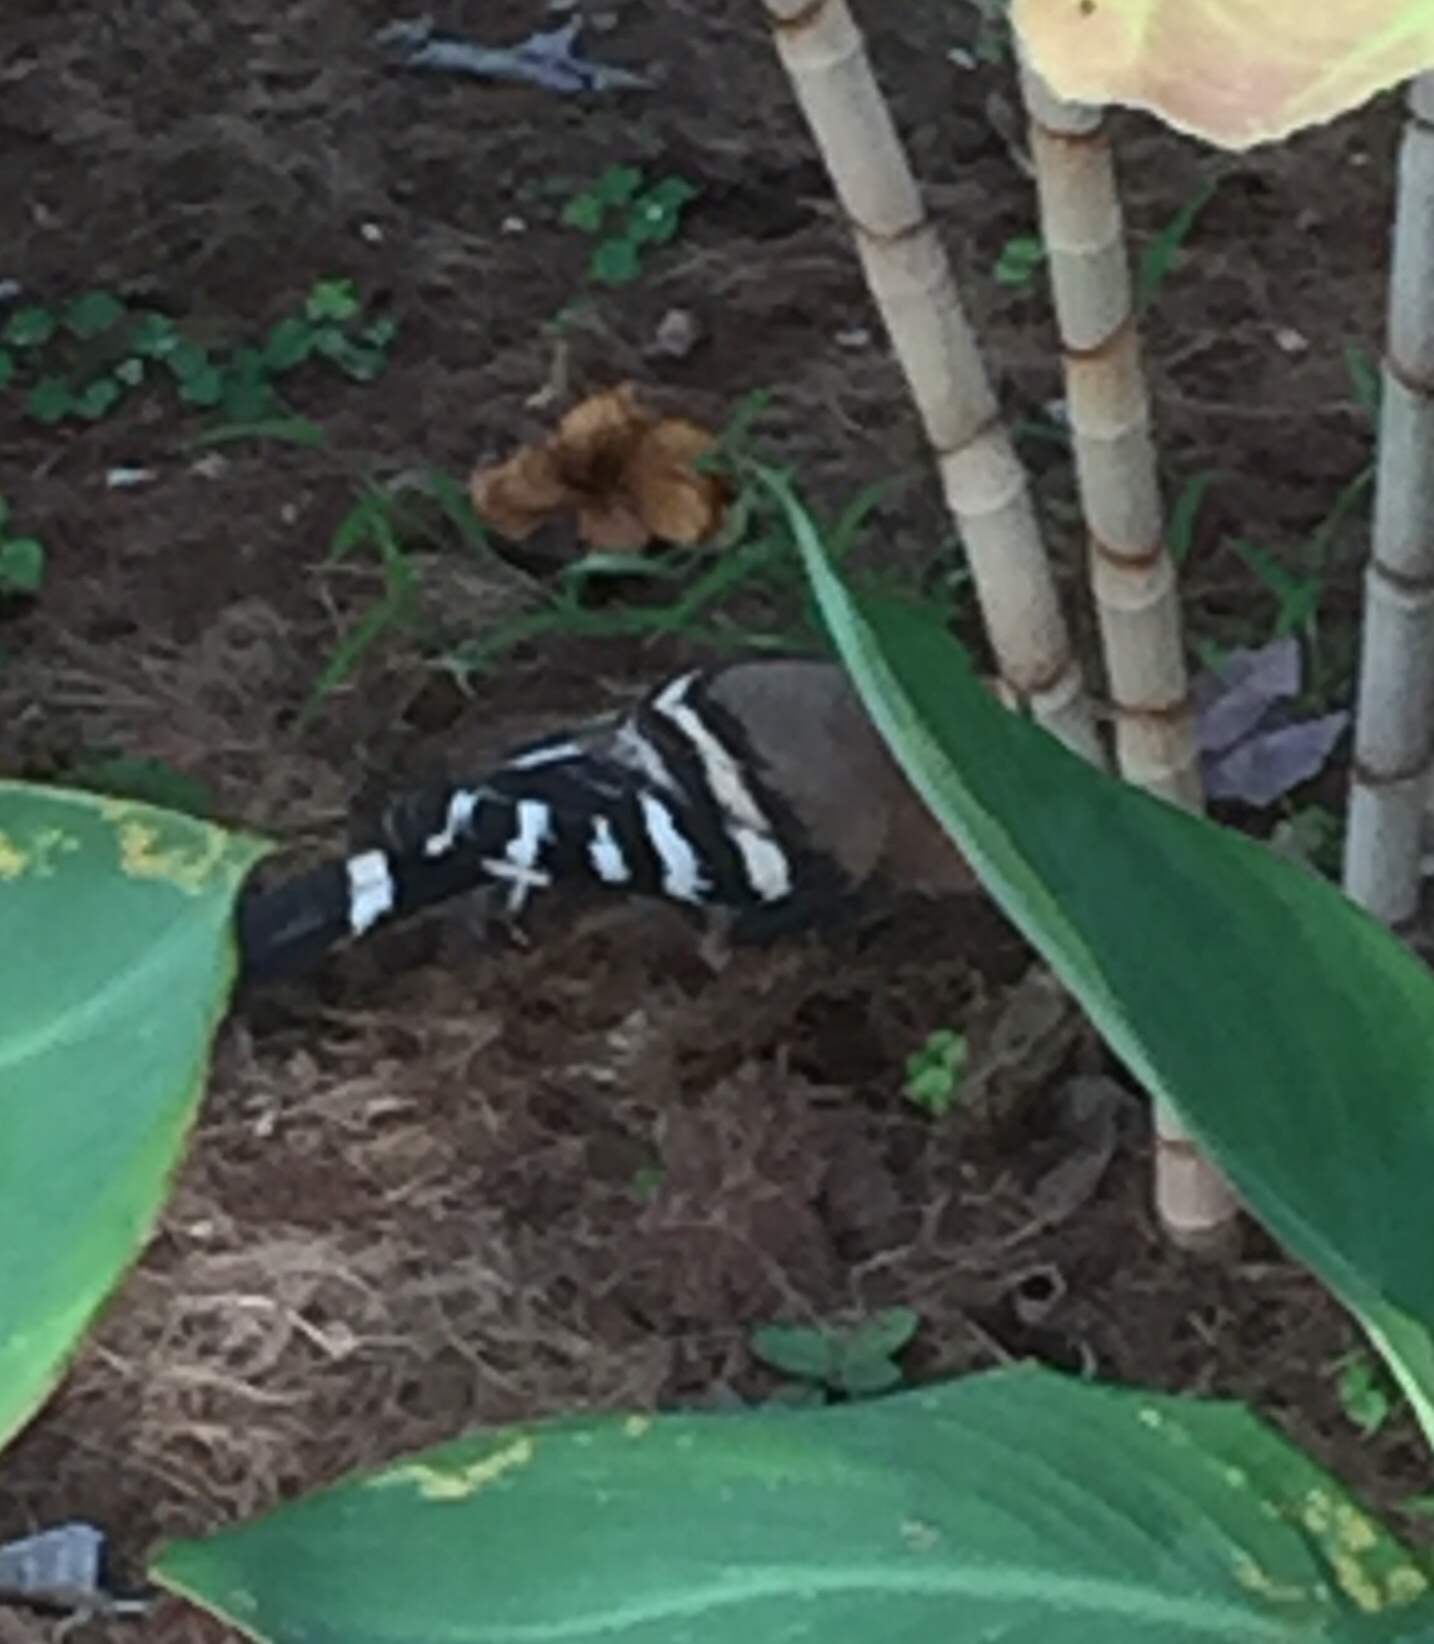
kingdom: Animalia
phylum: Chordata
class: Aves
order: Bucerotiformes
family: Upupidae
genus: Upupa
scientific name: Upupa epops
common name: Eurasian hoopoe
